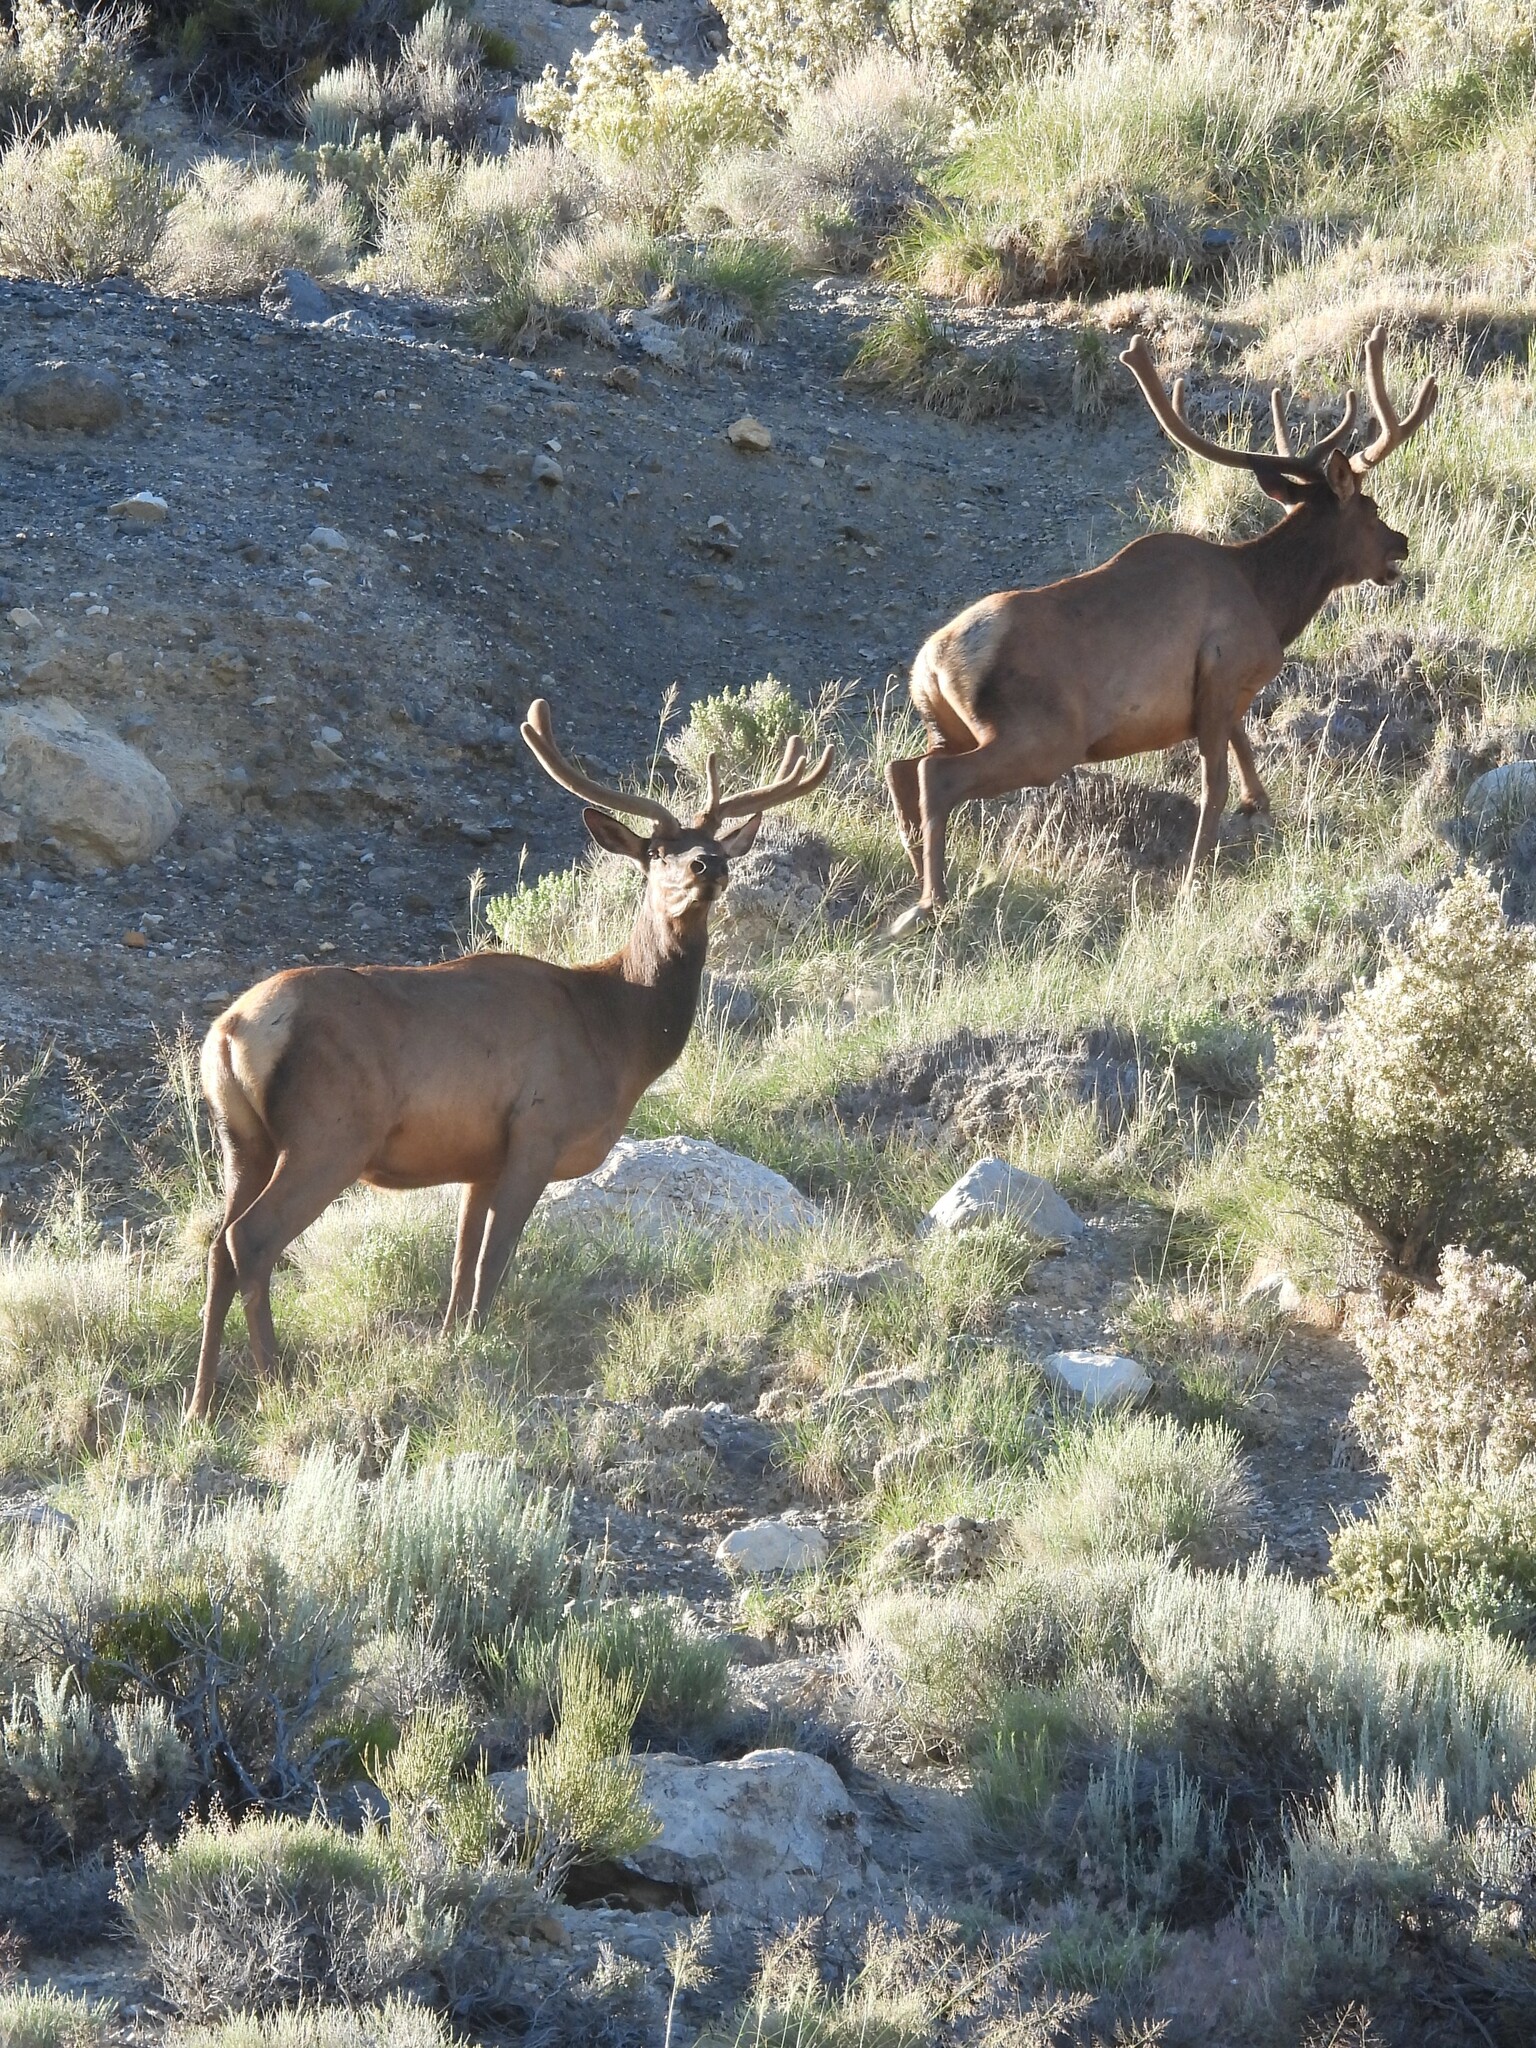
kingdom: Animalia
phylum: Chordata
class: Mammalia
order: Artiodactyla
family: Cervidae
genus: Cervus
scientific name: Cervus elaphus
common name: Red deer
